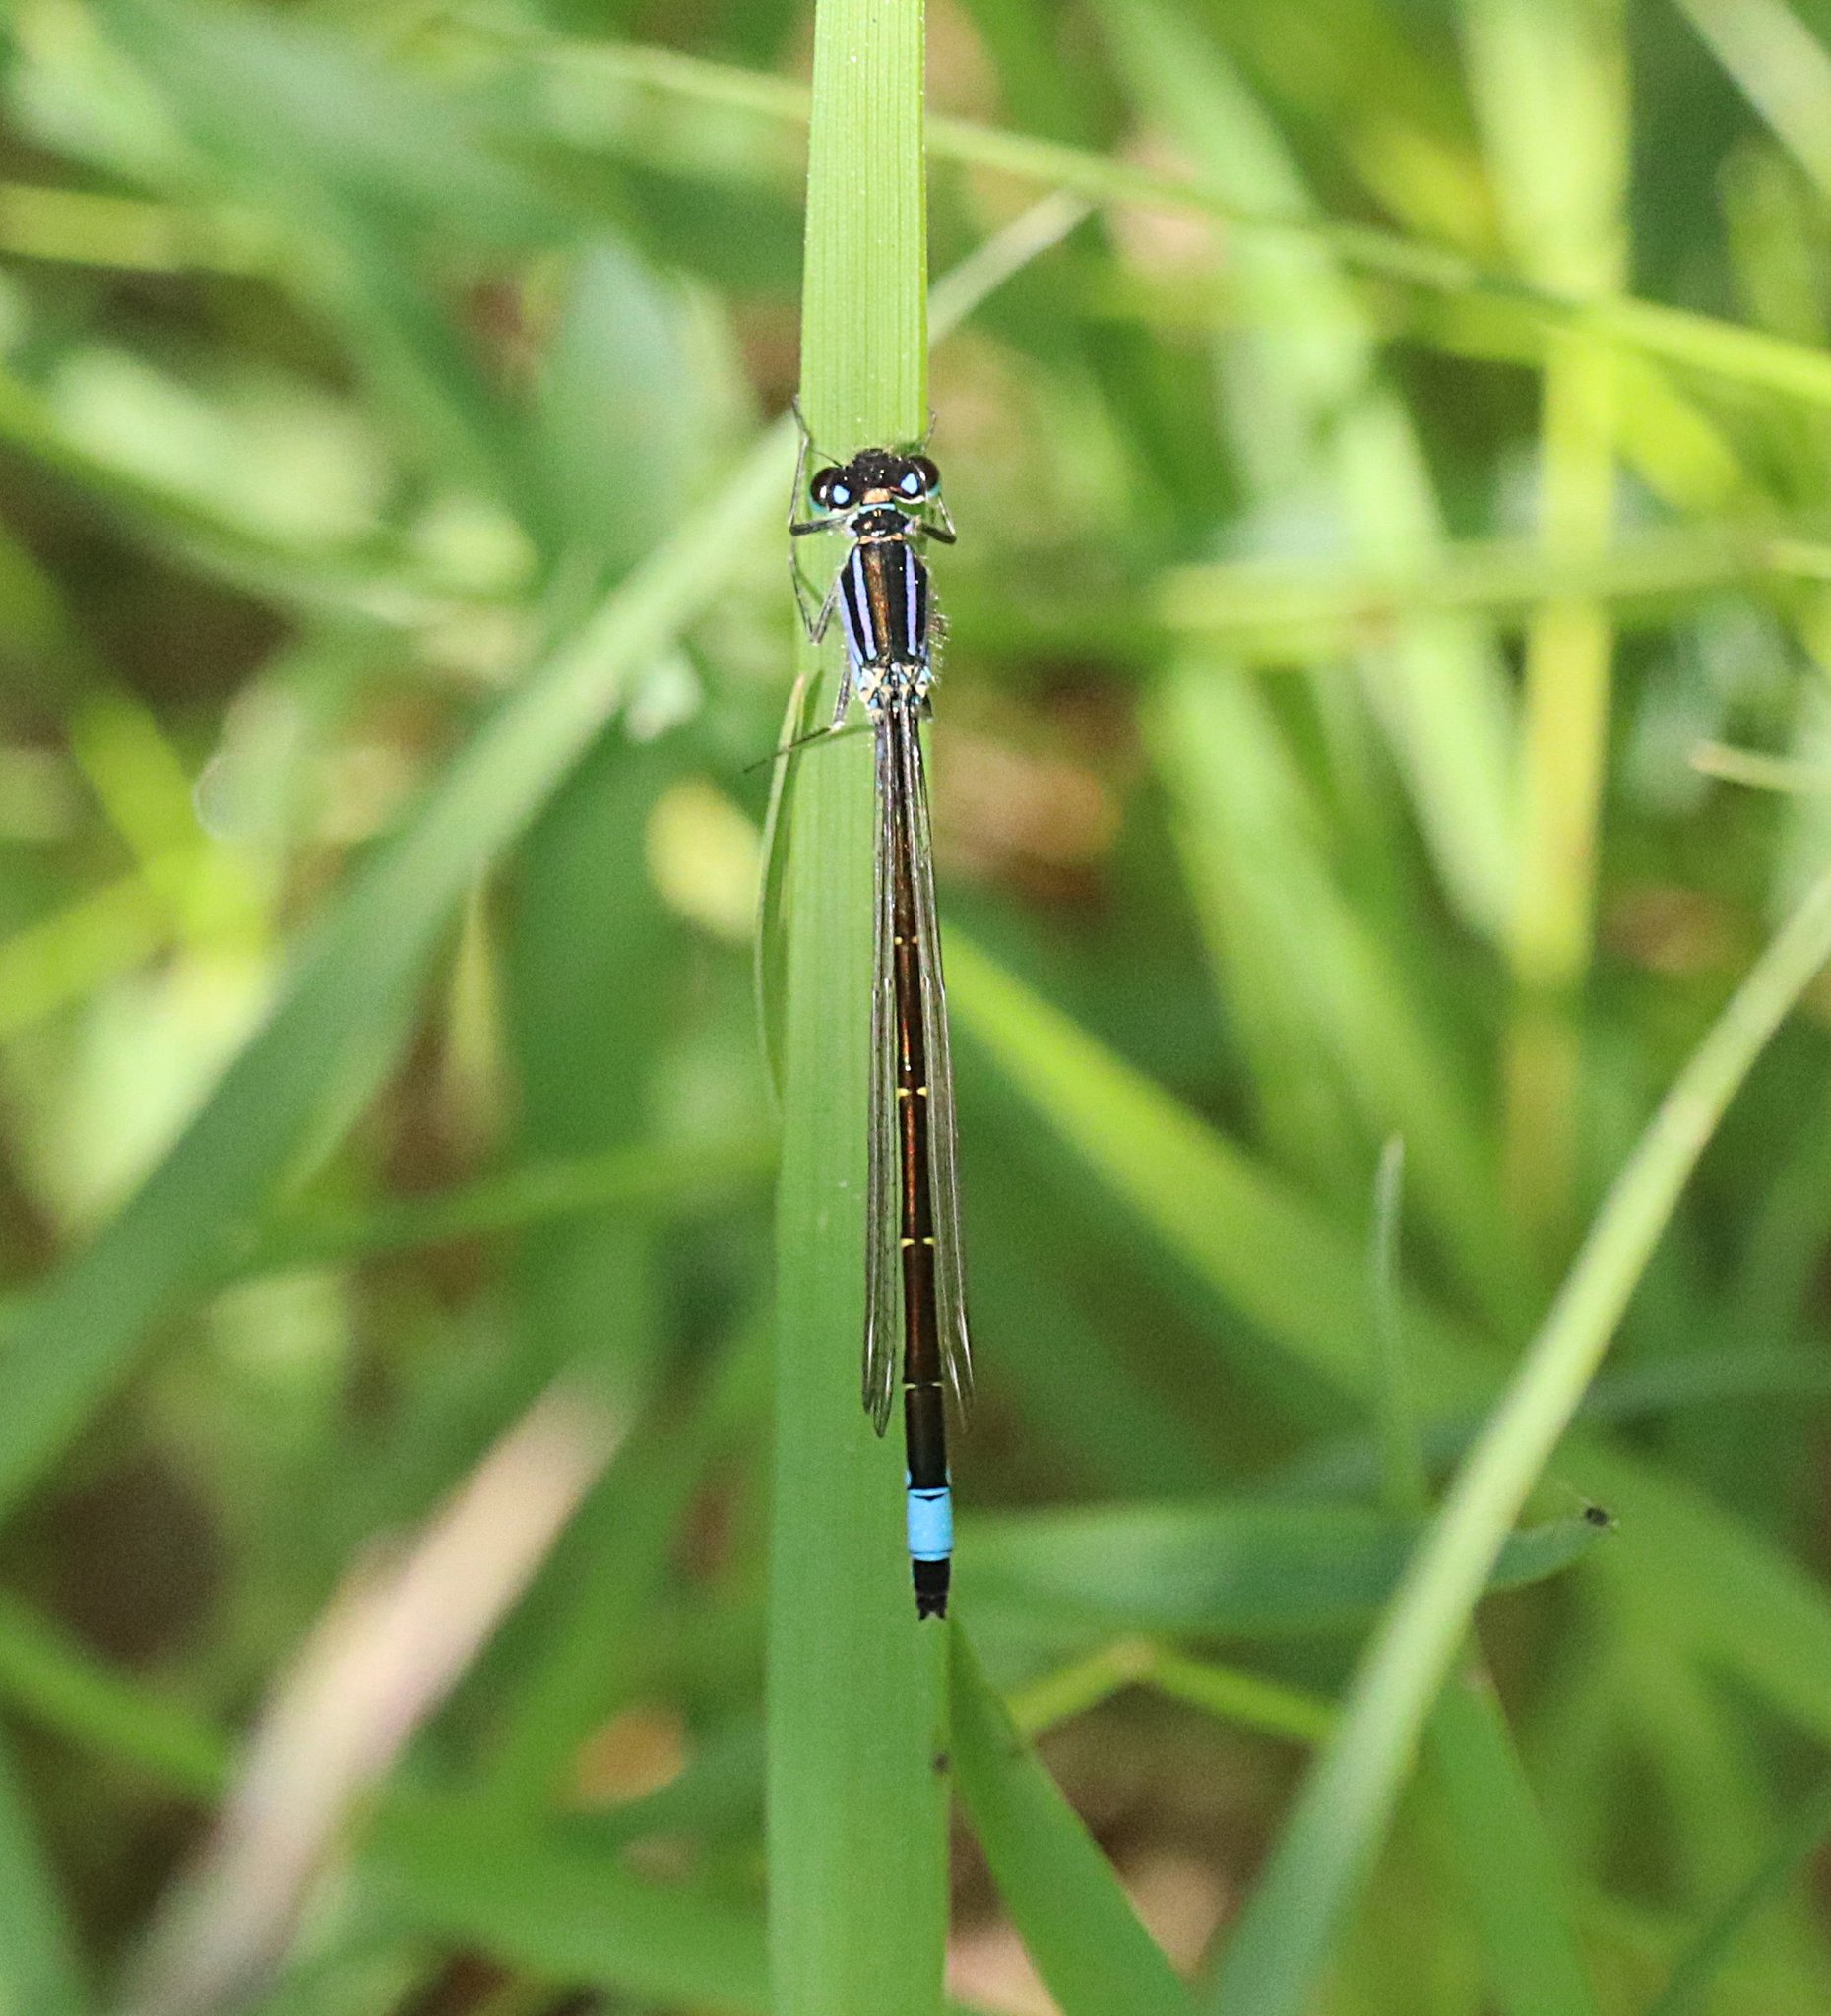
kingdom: Animalia
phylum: Arthropoda
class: Insecta
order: Odonata
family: Coenagrionidae
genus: Ischnura
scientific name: Ischnura elegans
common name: Blue-tailed damselfly
